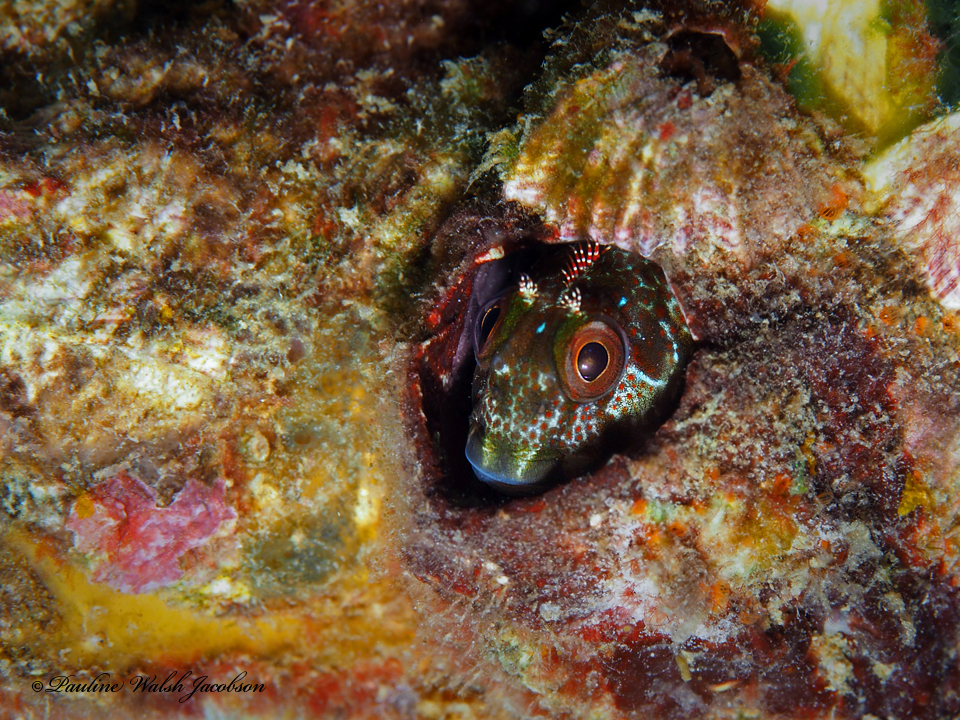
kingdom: Animalia
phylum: Chordata
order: Perciformes
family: Blenniidae
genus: Scartella
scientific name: Scartella cristata
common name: Molly miller
